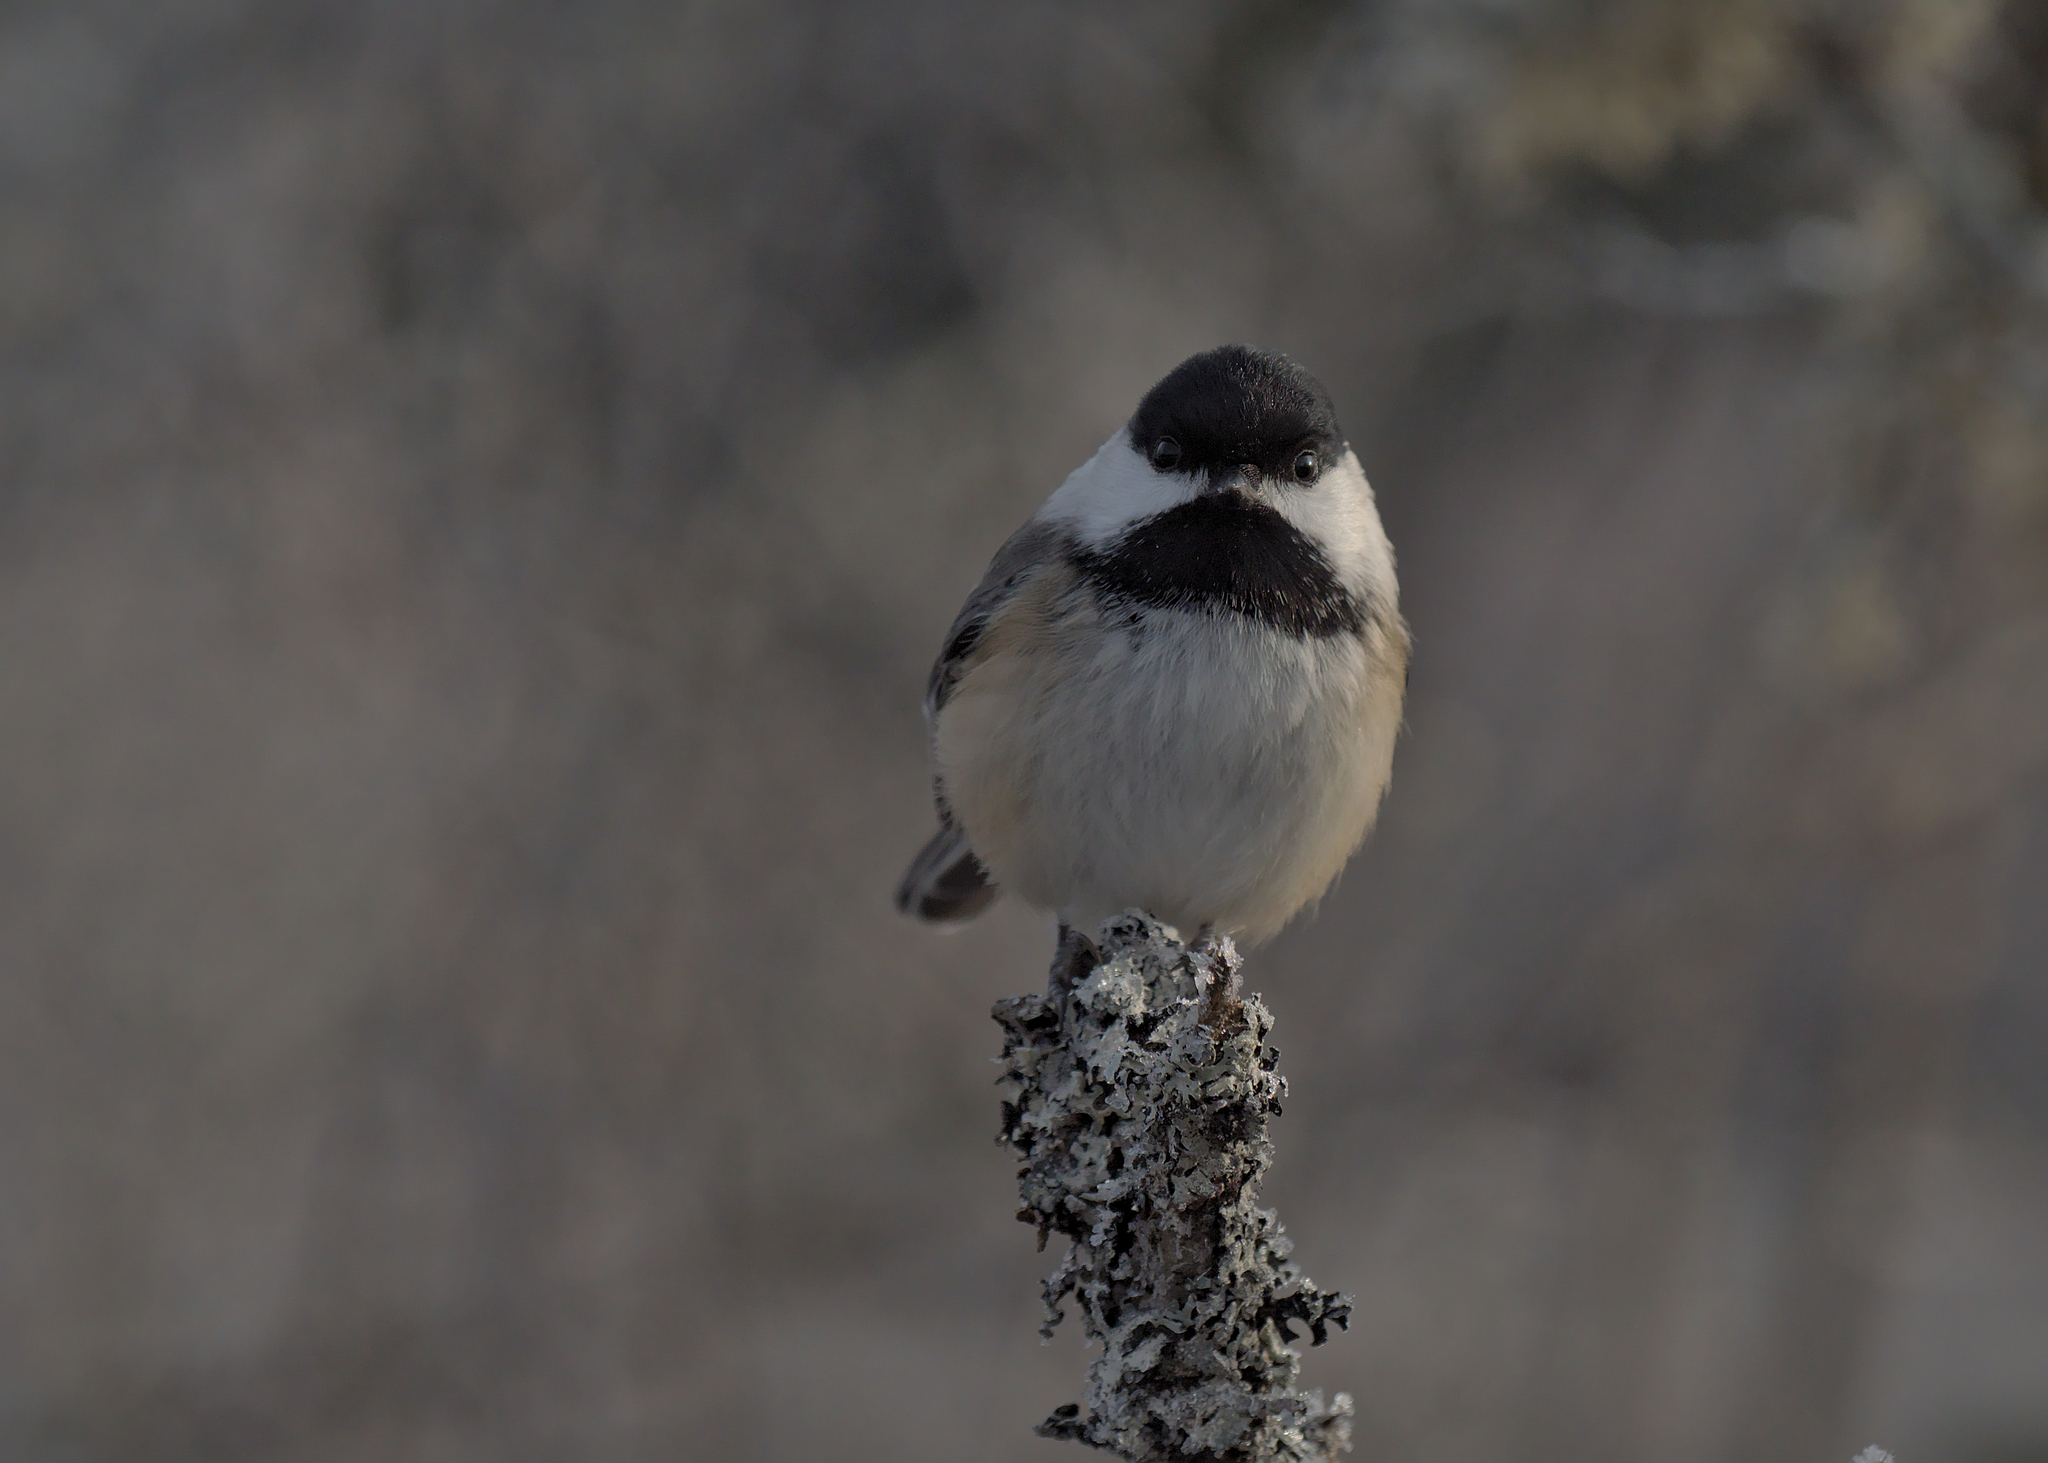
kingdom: Animalia
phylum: Chordata
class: Aves
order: Passeriformes
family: Paridae
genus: Poecile
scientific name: Poecile atricapillus
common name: Black-capped chickadee
